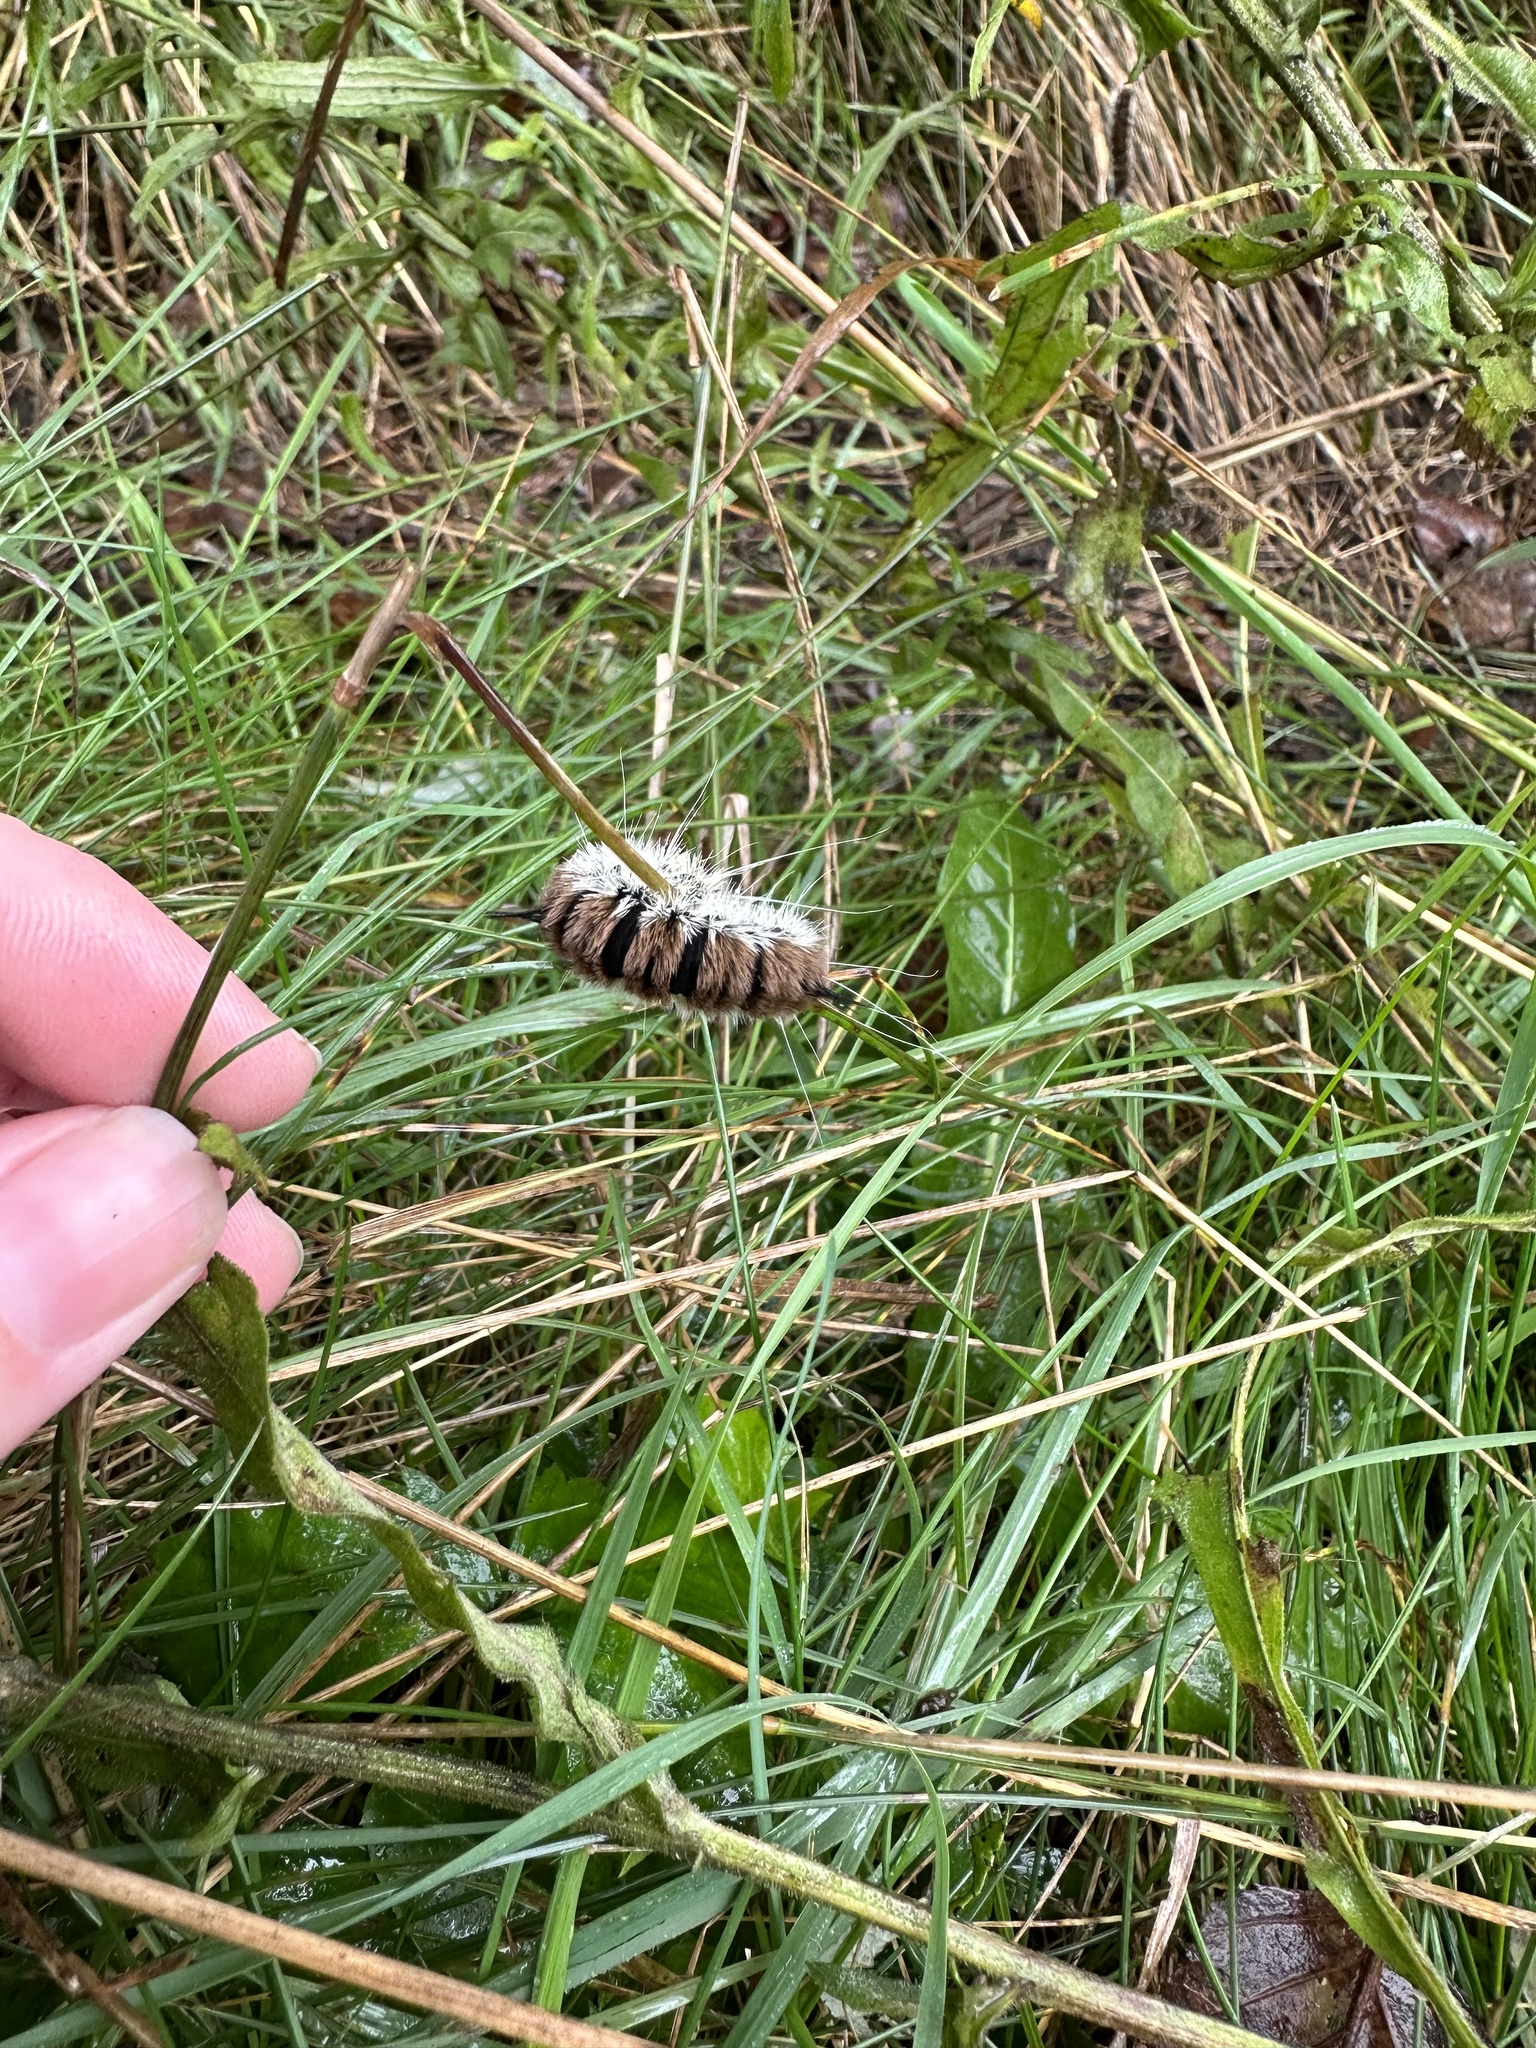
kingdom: Animalia
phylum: Arthropoda
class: Insecta
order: Lepidoptera
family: Noctuidae
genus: Acronicta
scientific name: Acronicta insita
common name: Large gray dagger
